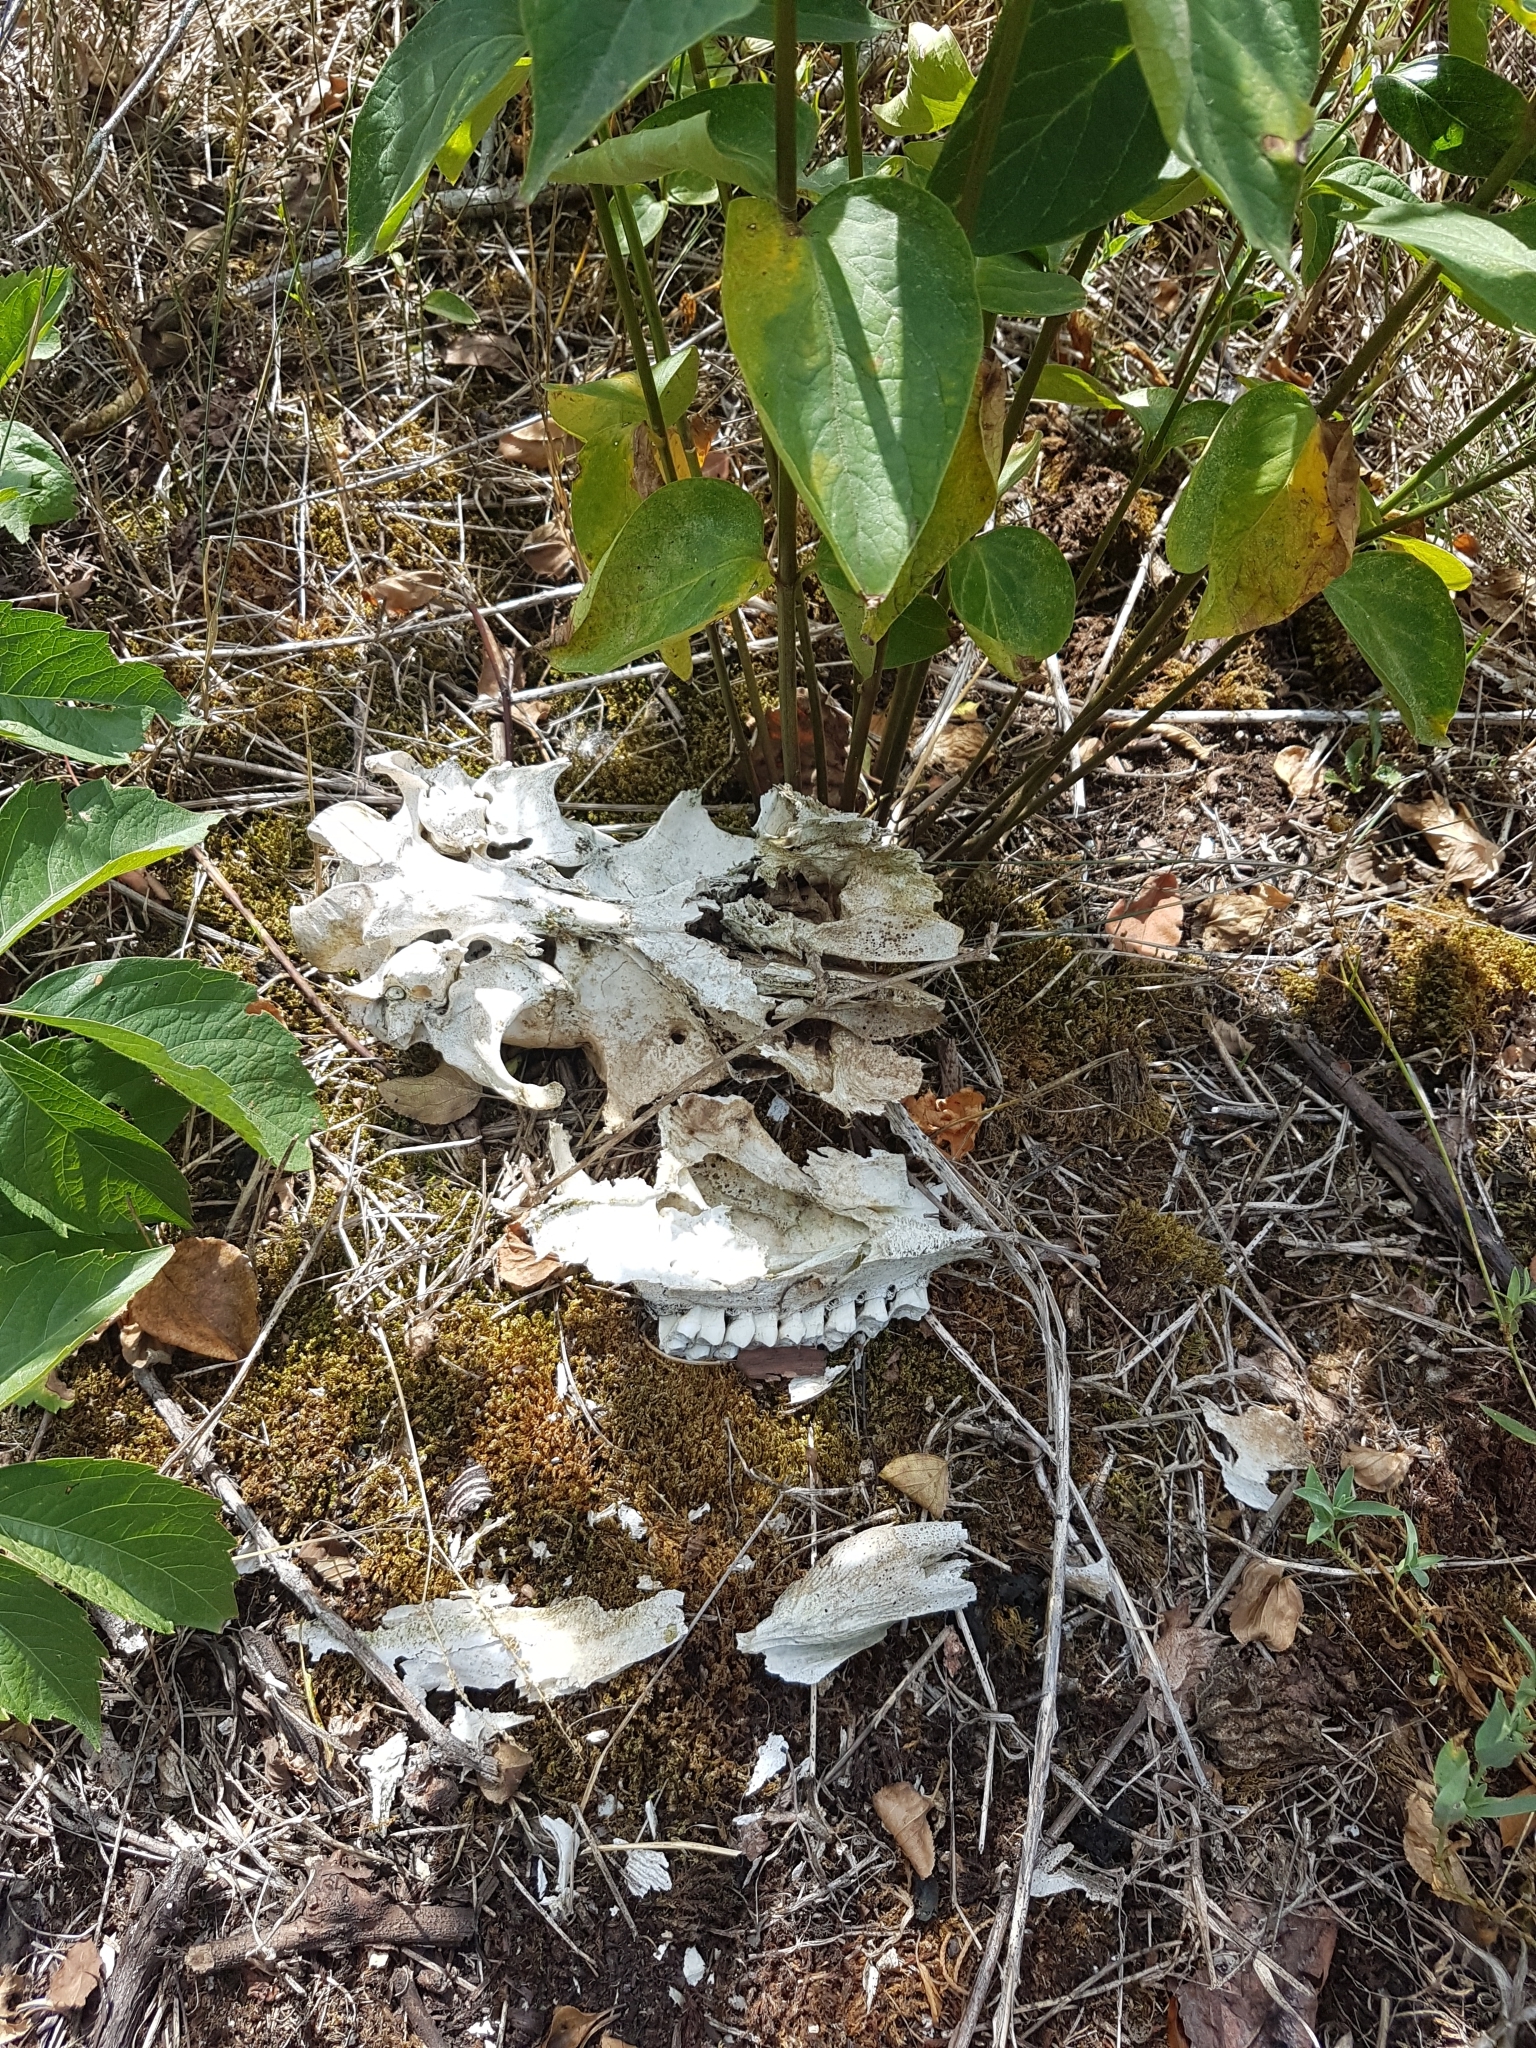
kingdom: Animalia
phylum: Chordata
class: Mammalia
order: Artiodactyla
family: Cervidae
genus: Odocoileus
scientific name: Odocoileus virginianus
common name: White-tailed deer
